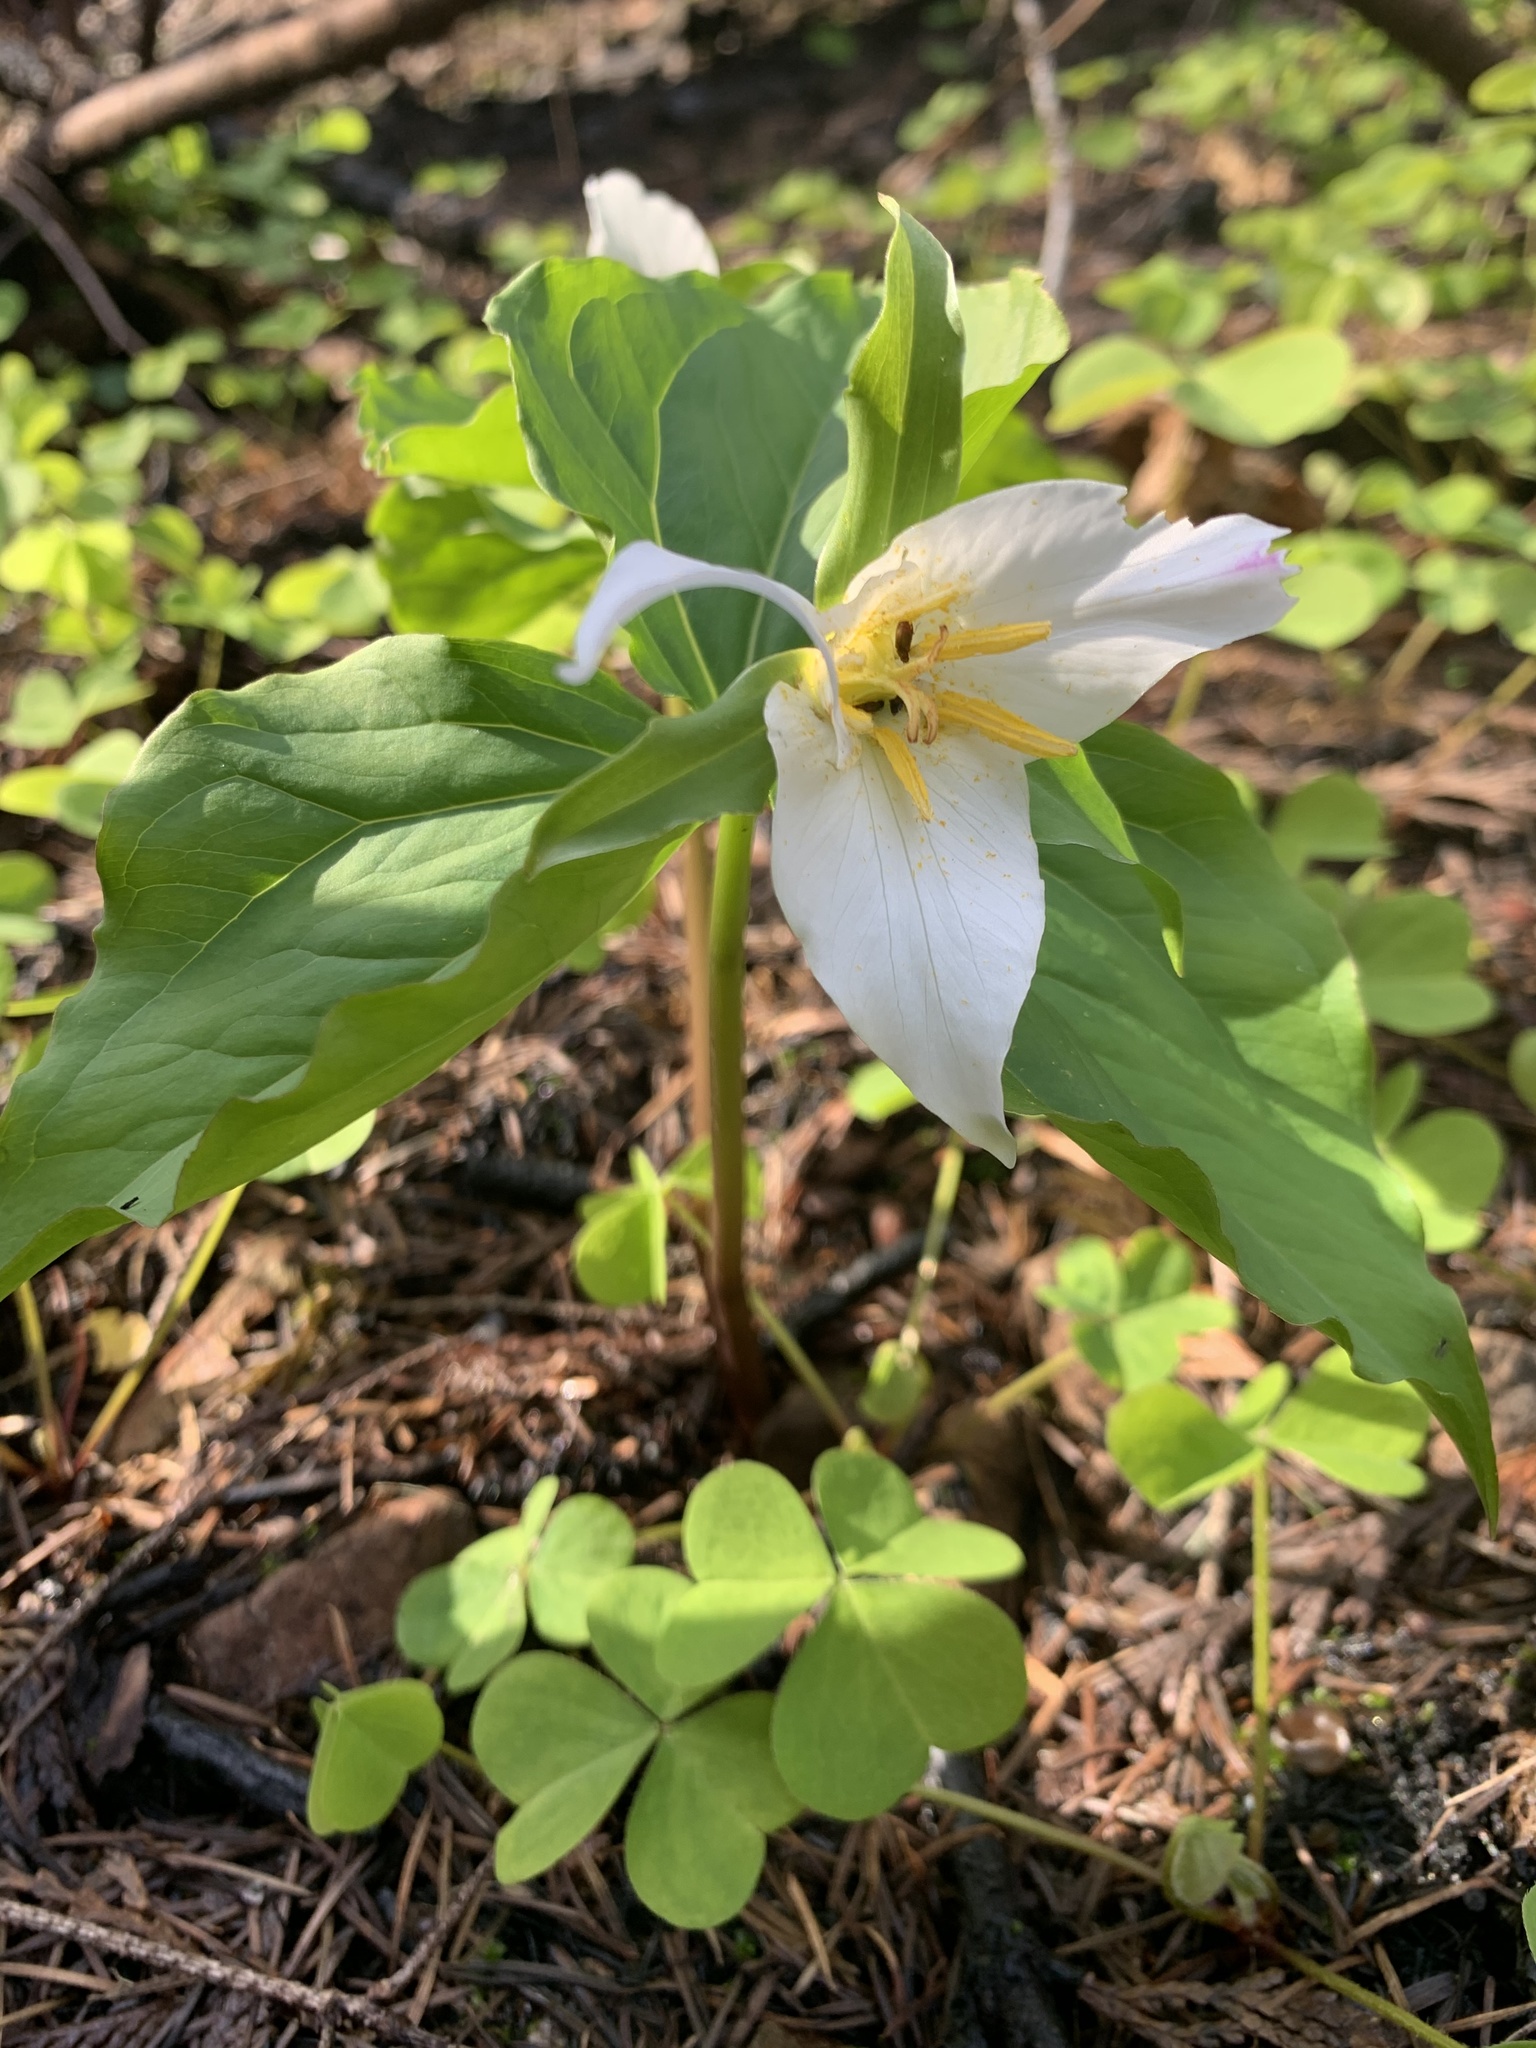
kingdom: Plantae
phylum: Tracheophyta
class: Liliopsida
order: Liliales
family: Melanthiaceae
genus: Trillium
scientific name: Trillium ovatum
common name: Pacific trillium
